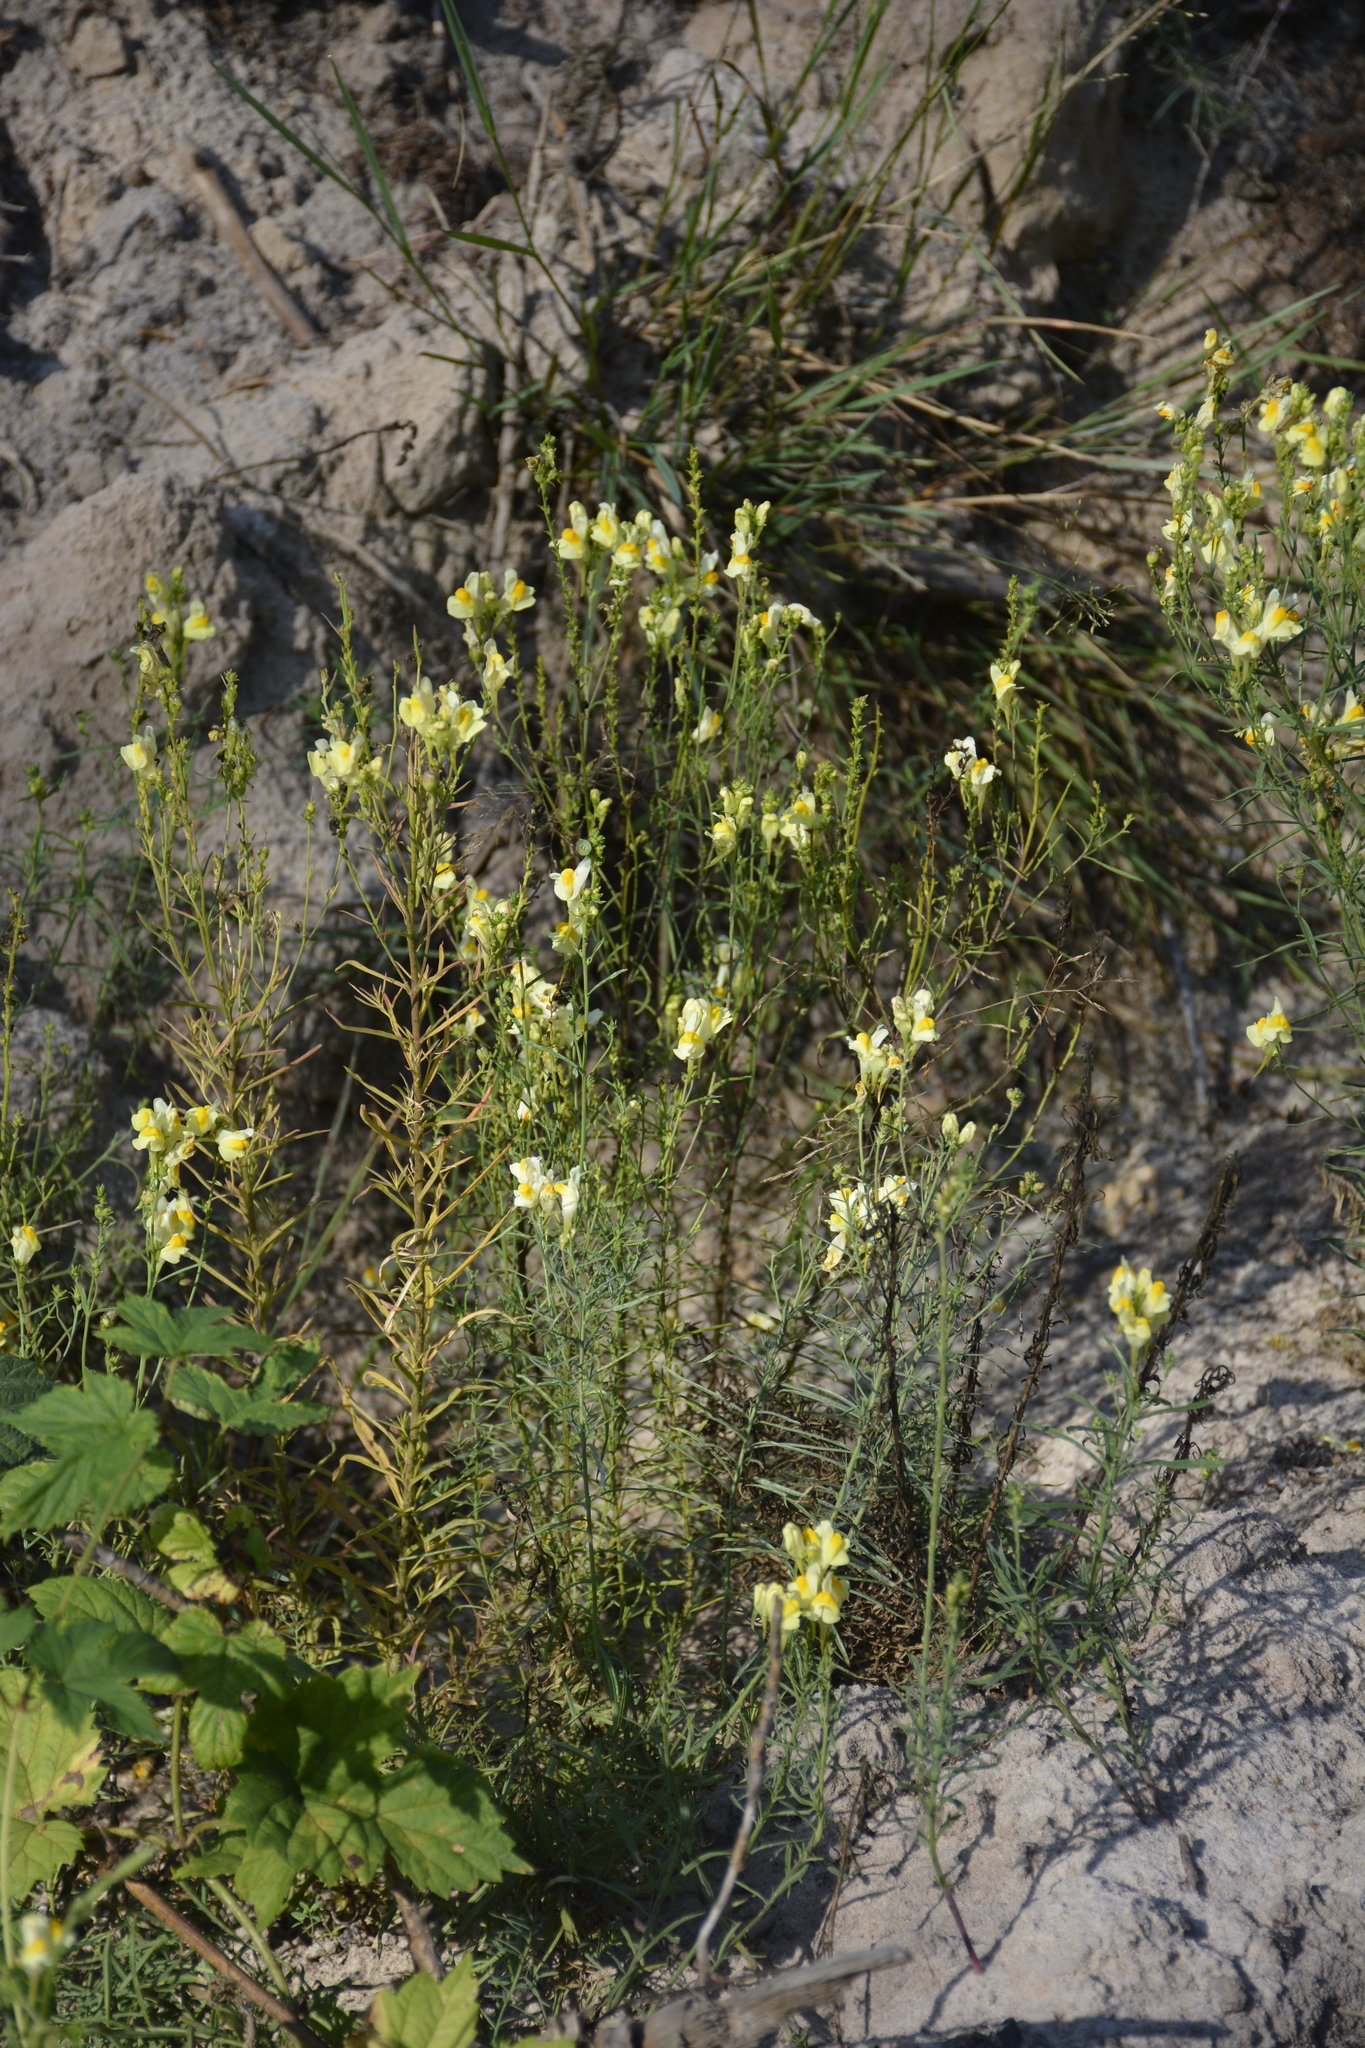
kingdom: Plantae
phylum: Tracheophyta
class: Magnoliopsida
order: Lamiales
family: Plantaginaceae
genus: Linaria
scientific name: Linaria vulgaris
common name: Butter and eggs
